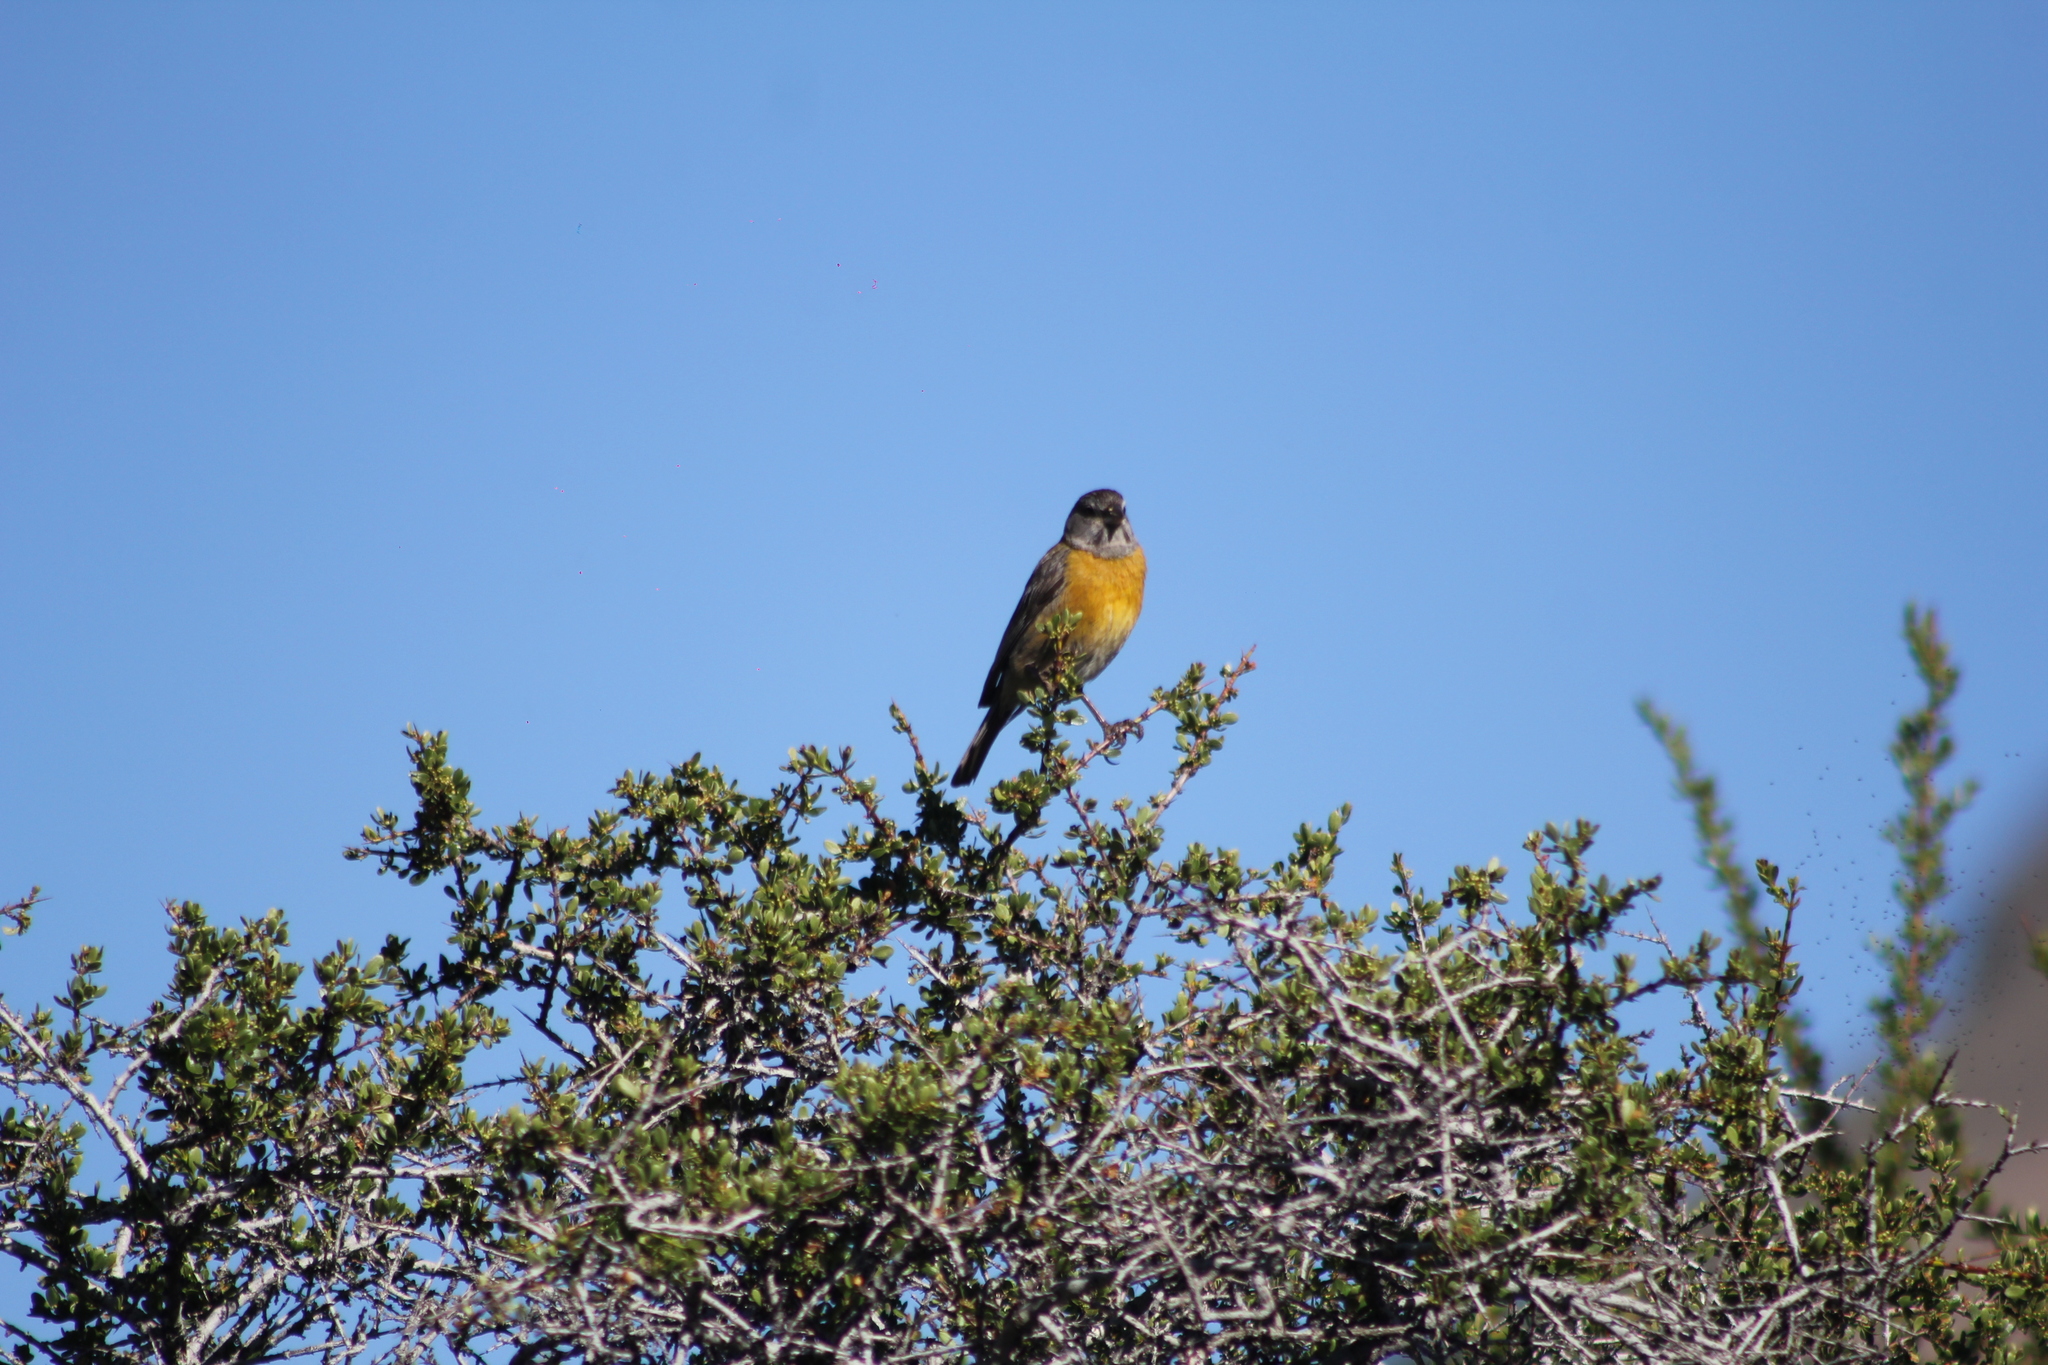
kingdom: Animalia
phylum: Chordata
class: Aves
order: Passeriformes
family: Thraupidae
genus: Phrygilus
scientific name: Phrygilus gayi
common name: Grey-hooded sierra finch
